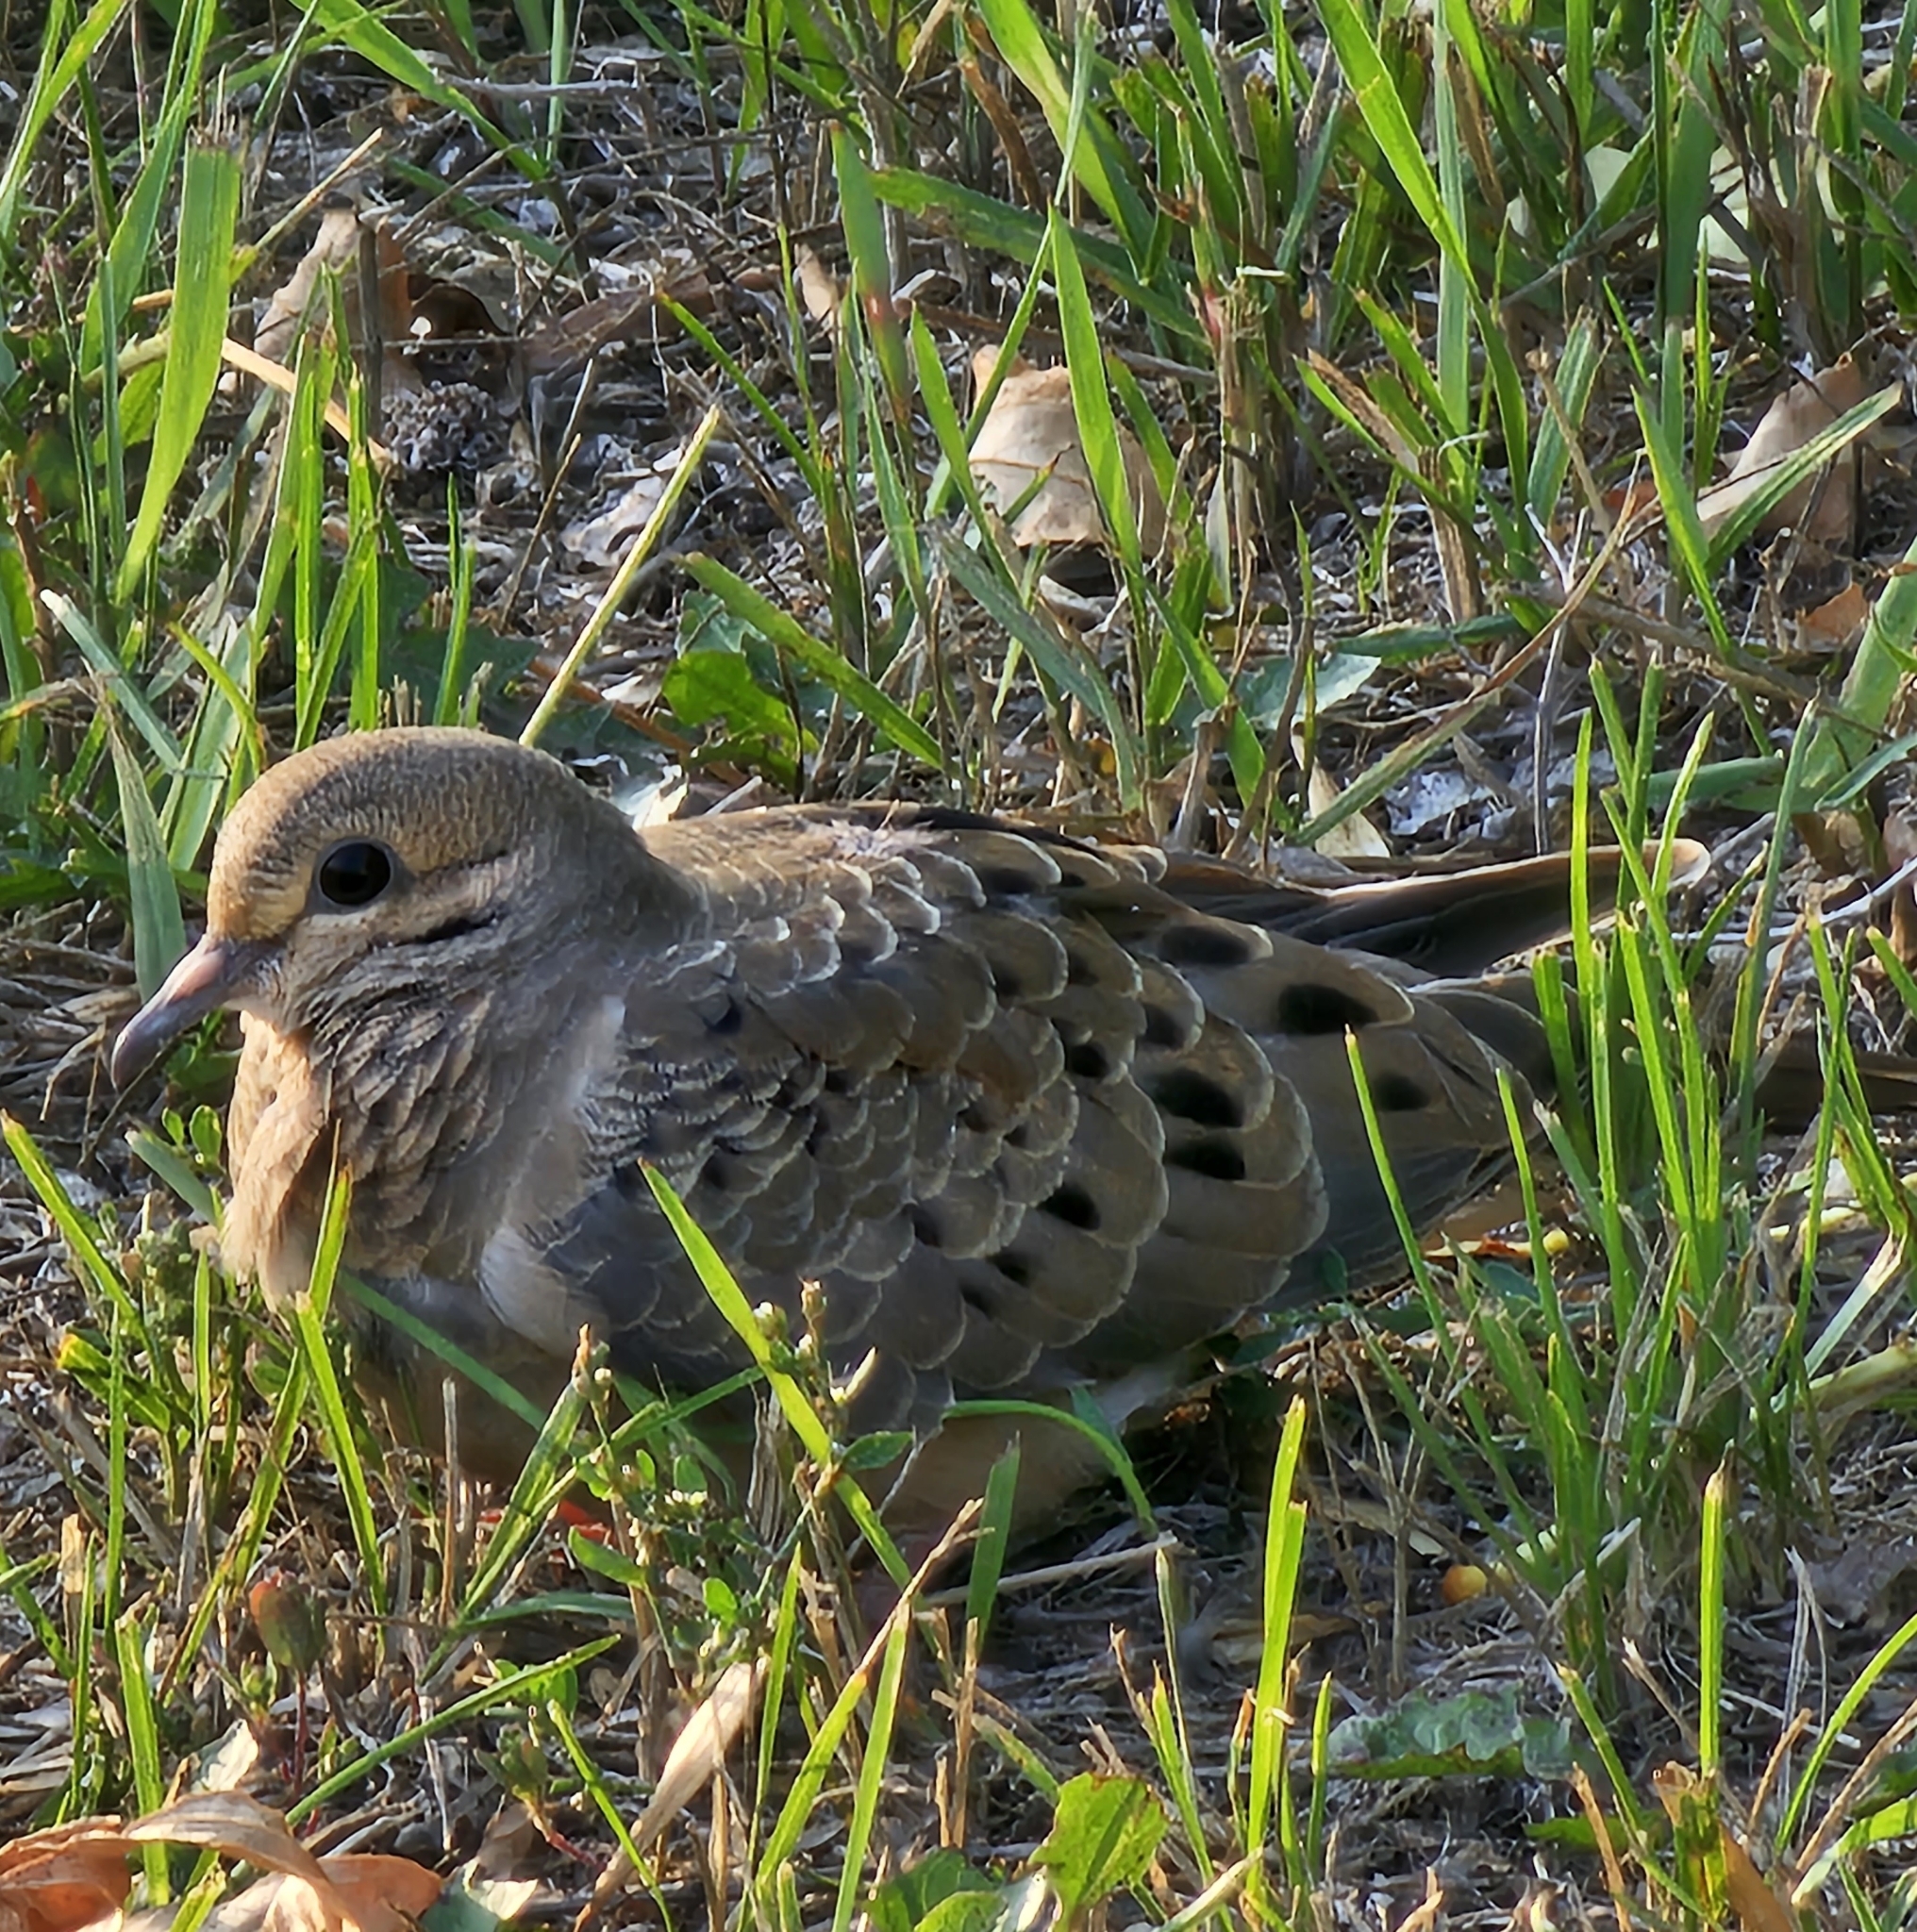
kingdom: Animalia
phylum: Chordata
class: Aves
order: Columbiformes
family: Columbidae
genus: Zenaida
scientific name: Zenaida macroura
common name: Mourning dove
